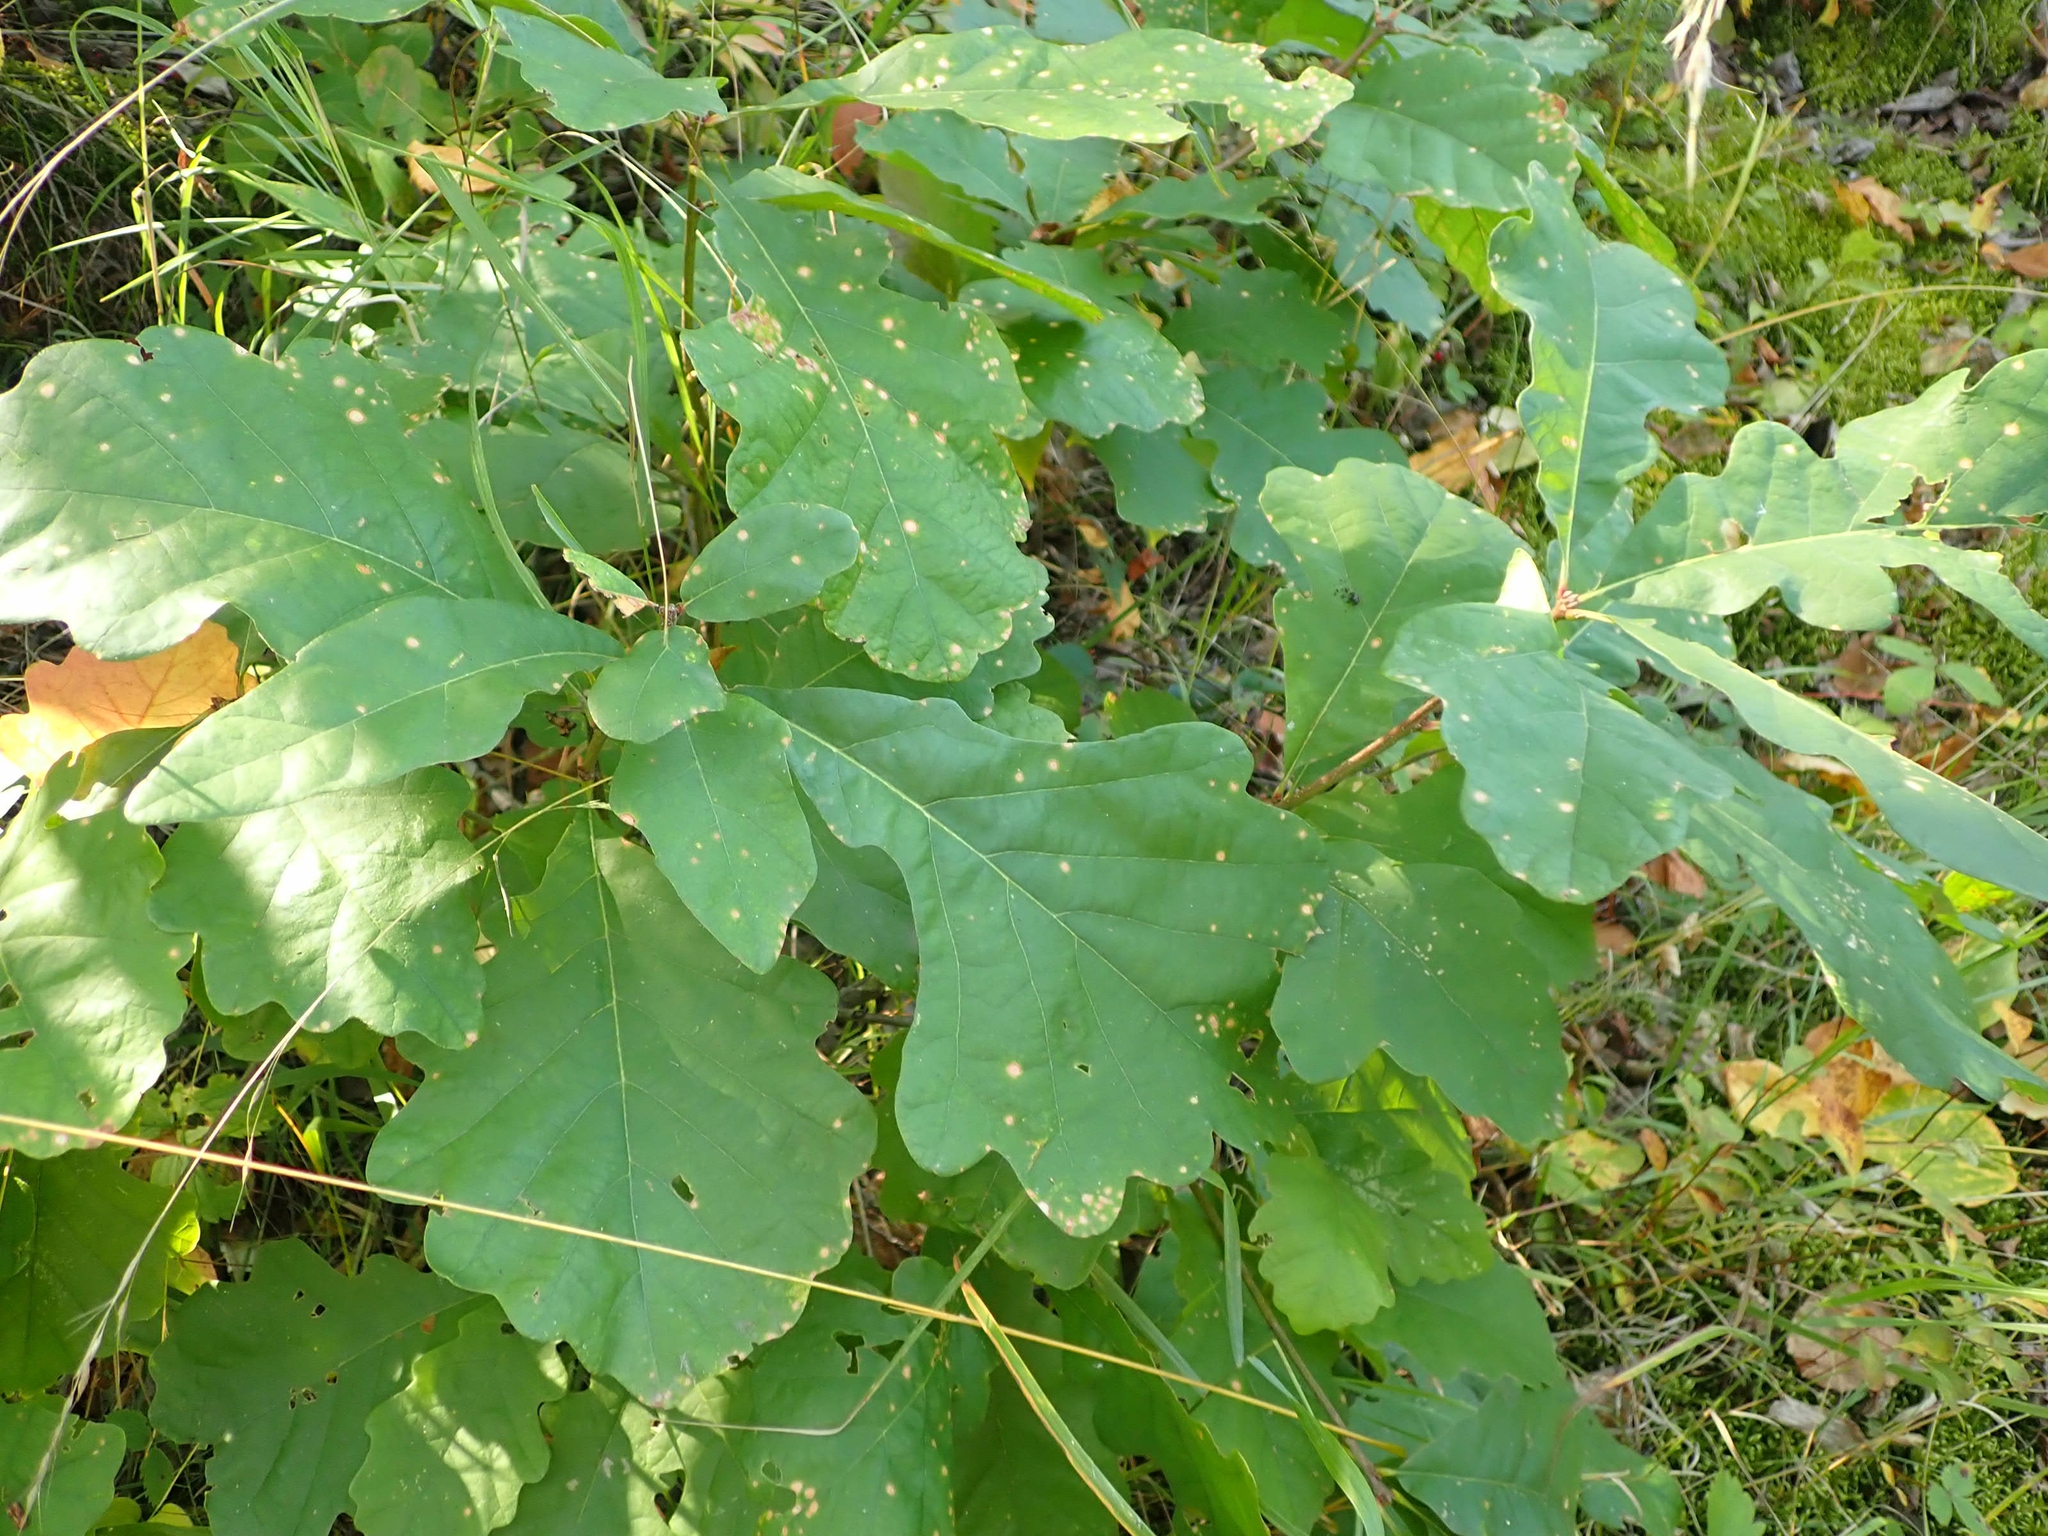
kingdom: Plantae
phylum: Tracheophyta
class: Magnoliopsida
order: Fagales
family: Fagaceae
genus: Quercus
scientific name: Quercus macrocarpa
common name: Bur oak
